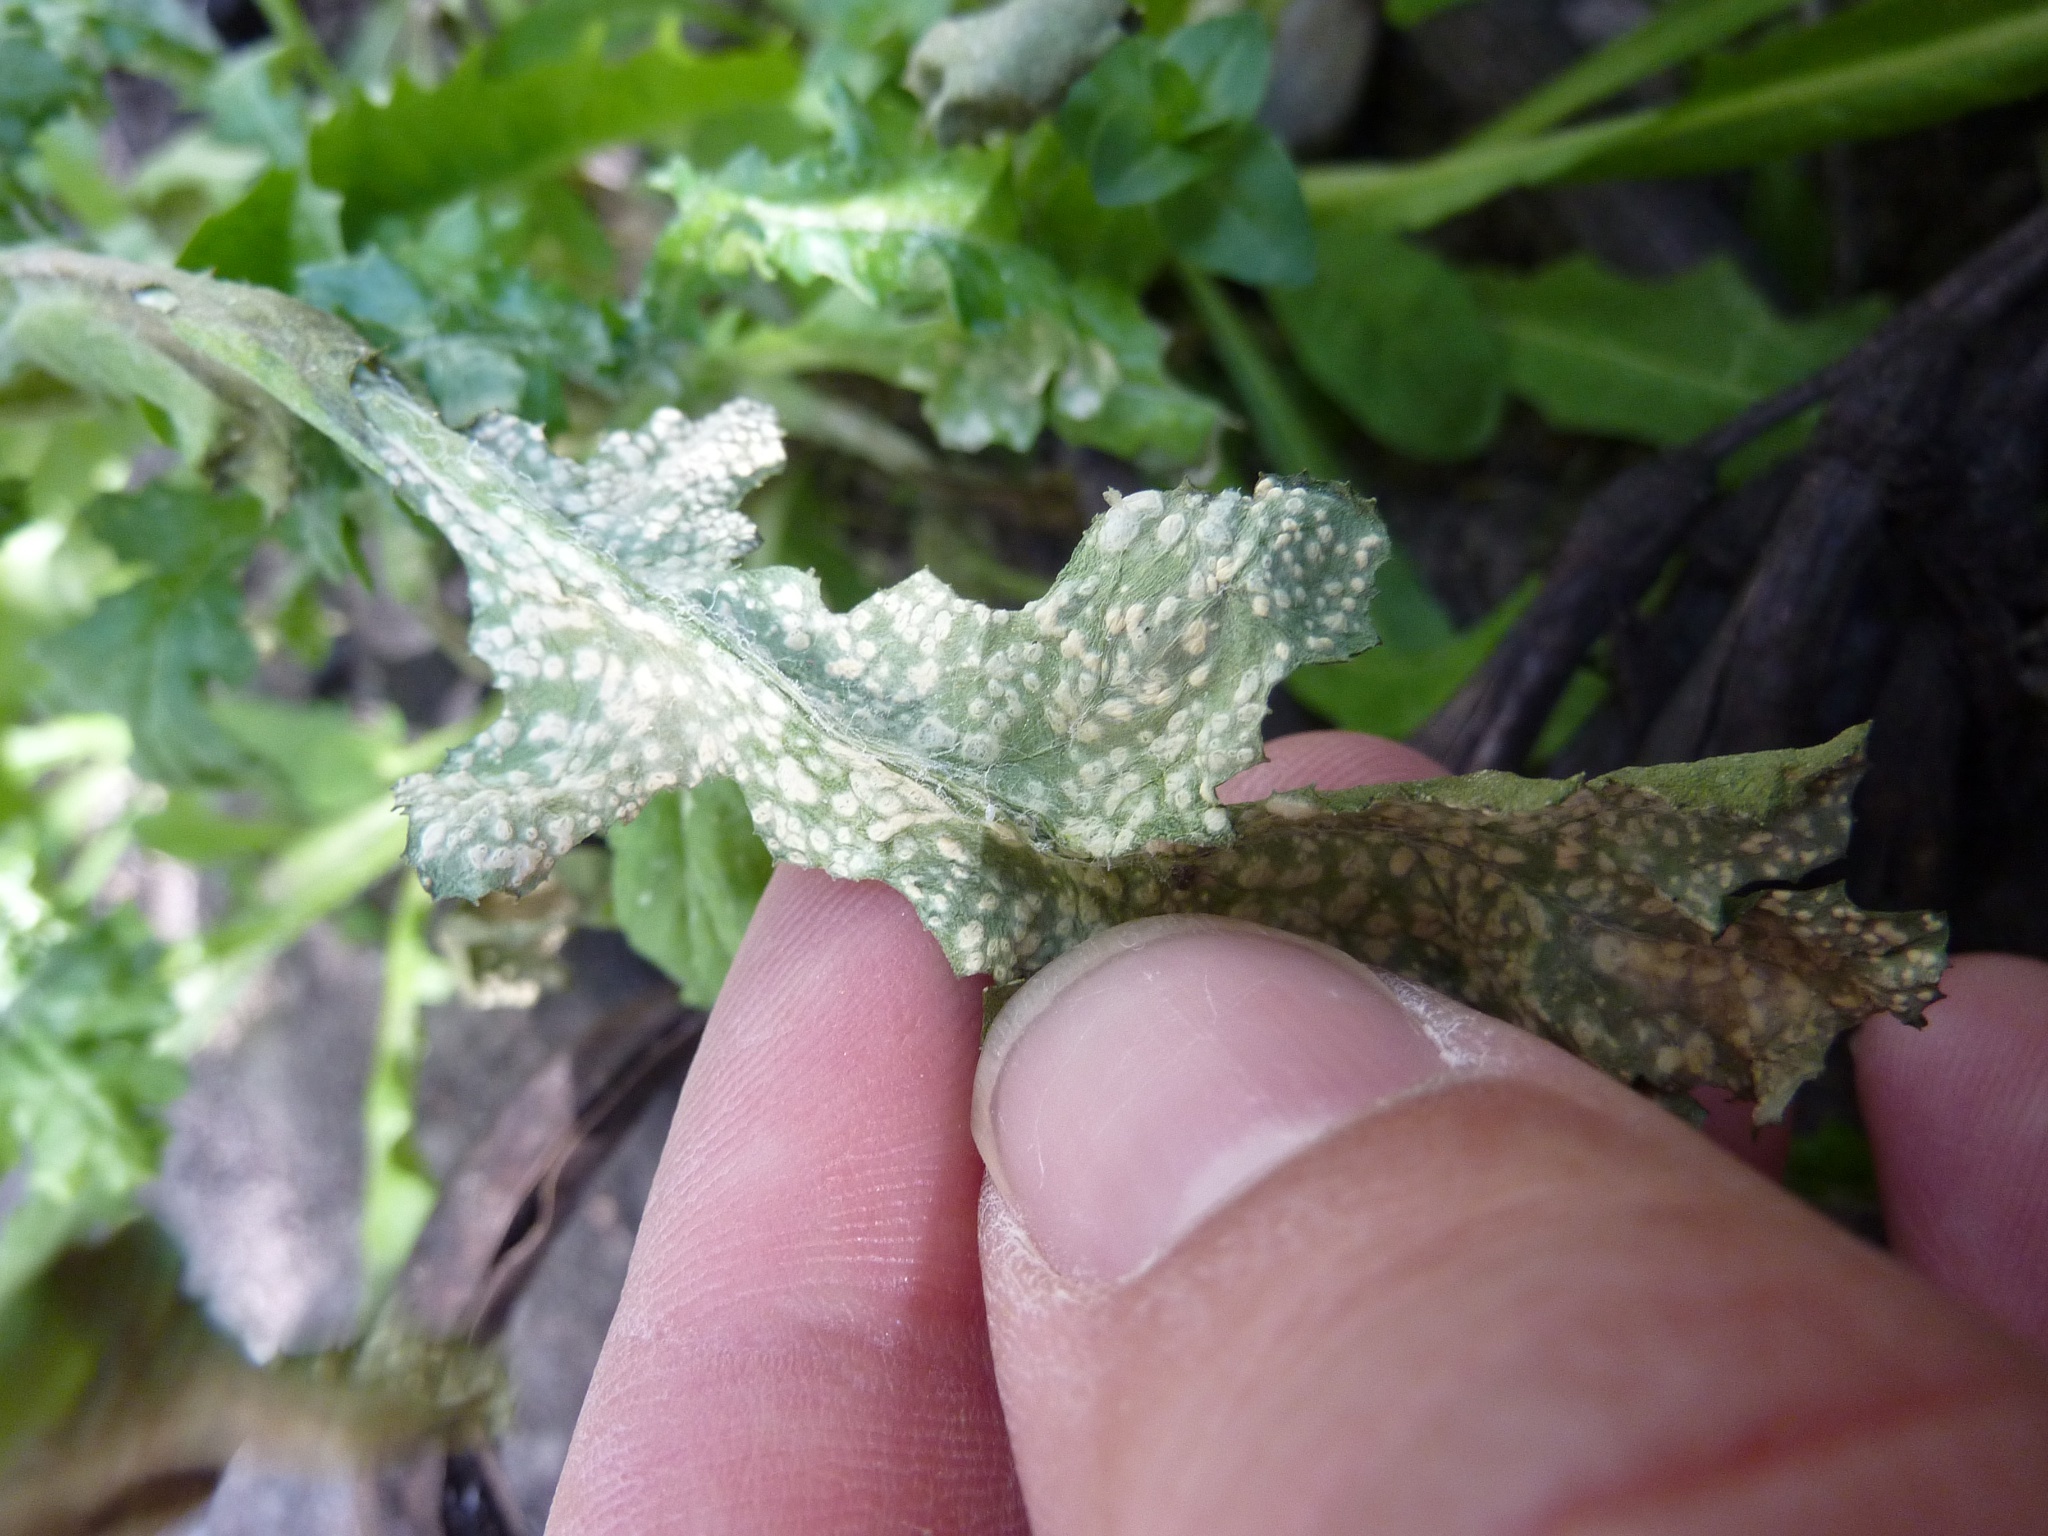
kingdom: Plantae
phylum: Tracheophyta
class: Magnoliopsida
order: Asterales
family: Asteraceae
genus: Senecio
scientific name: Senecio vulgaris
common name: Old-man-in-the-spring
